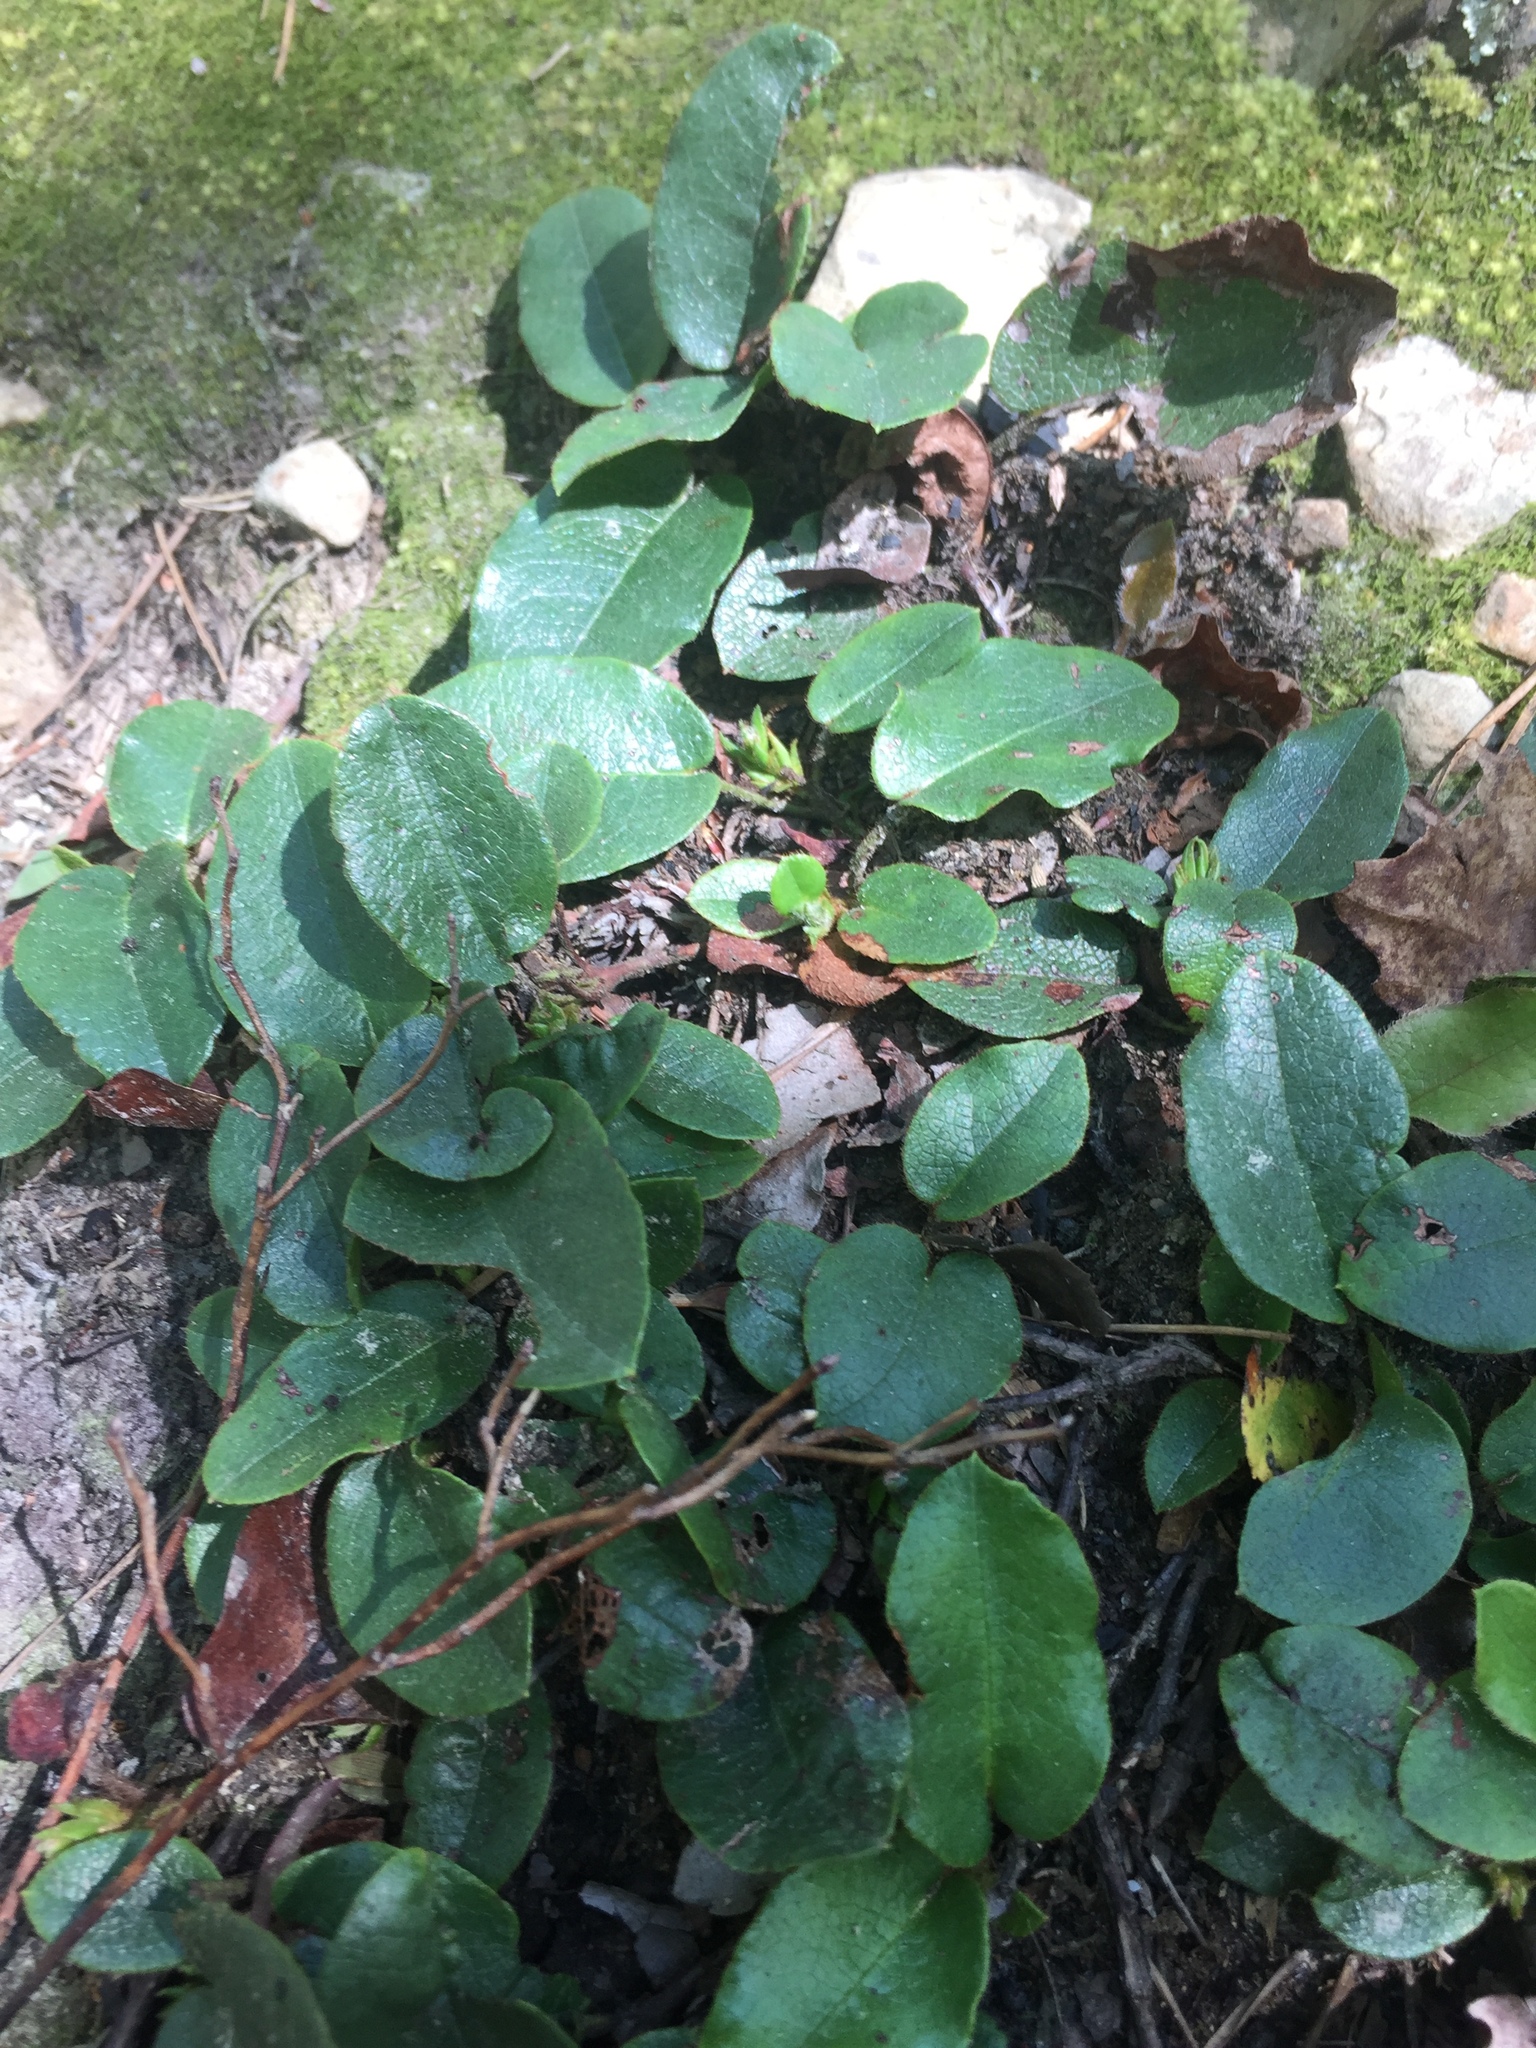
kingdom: Plantae
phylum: Tracheophyta
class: Magnoliopsida
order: Ericales
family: Ericaceae
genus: Epigaea
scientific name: Epigaea repens
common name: Gravelroot
